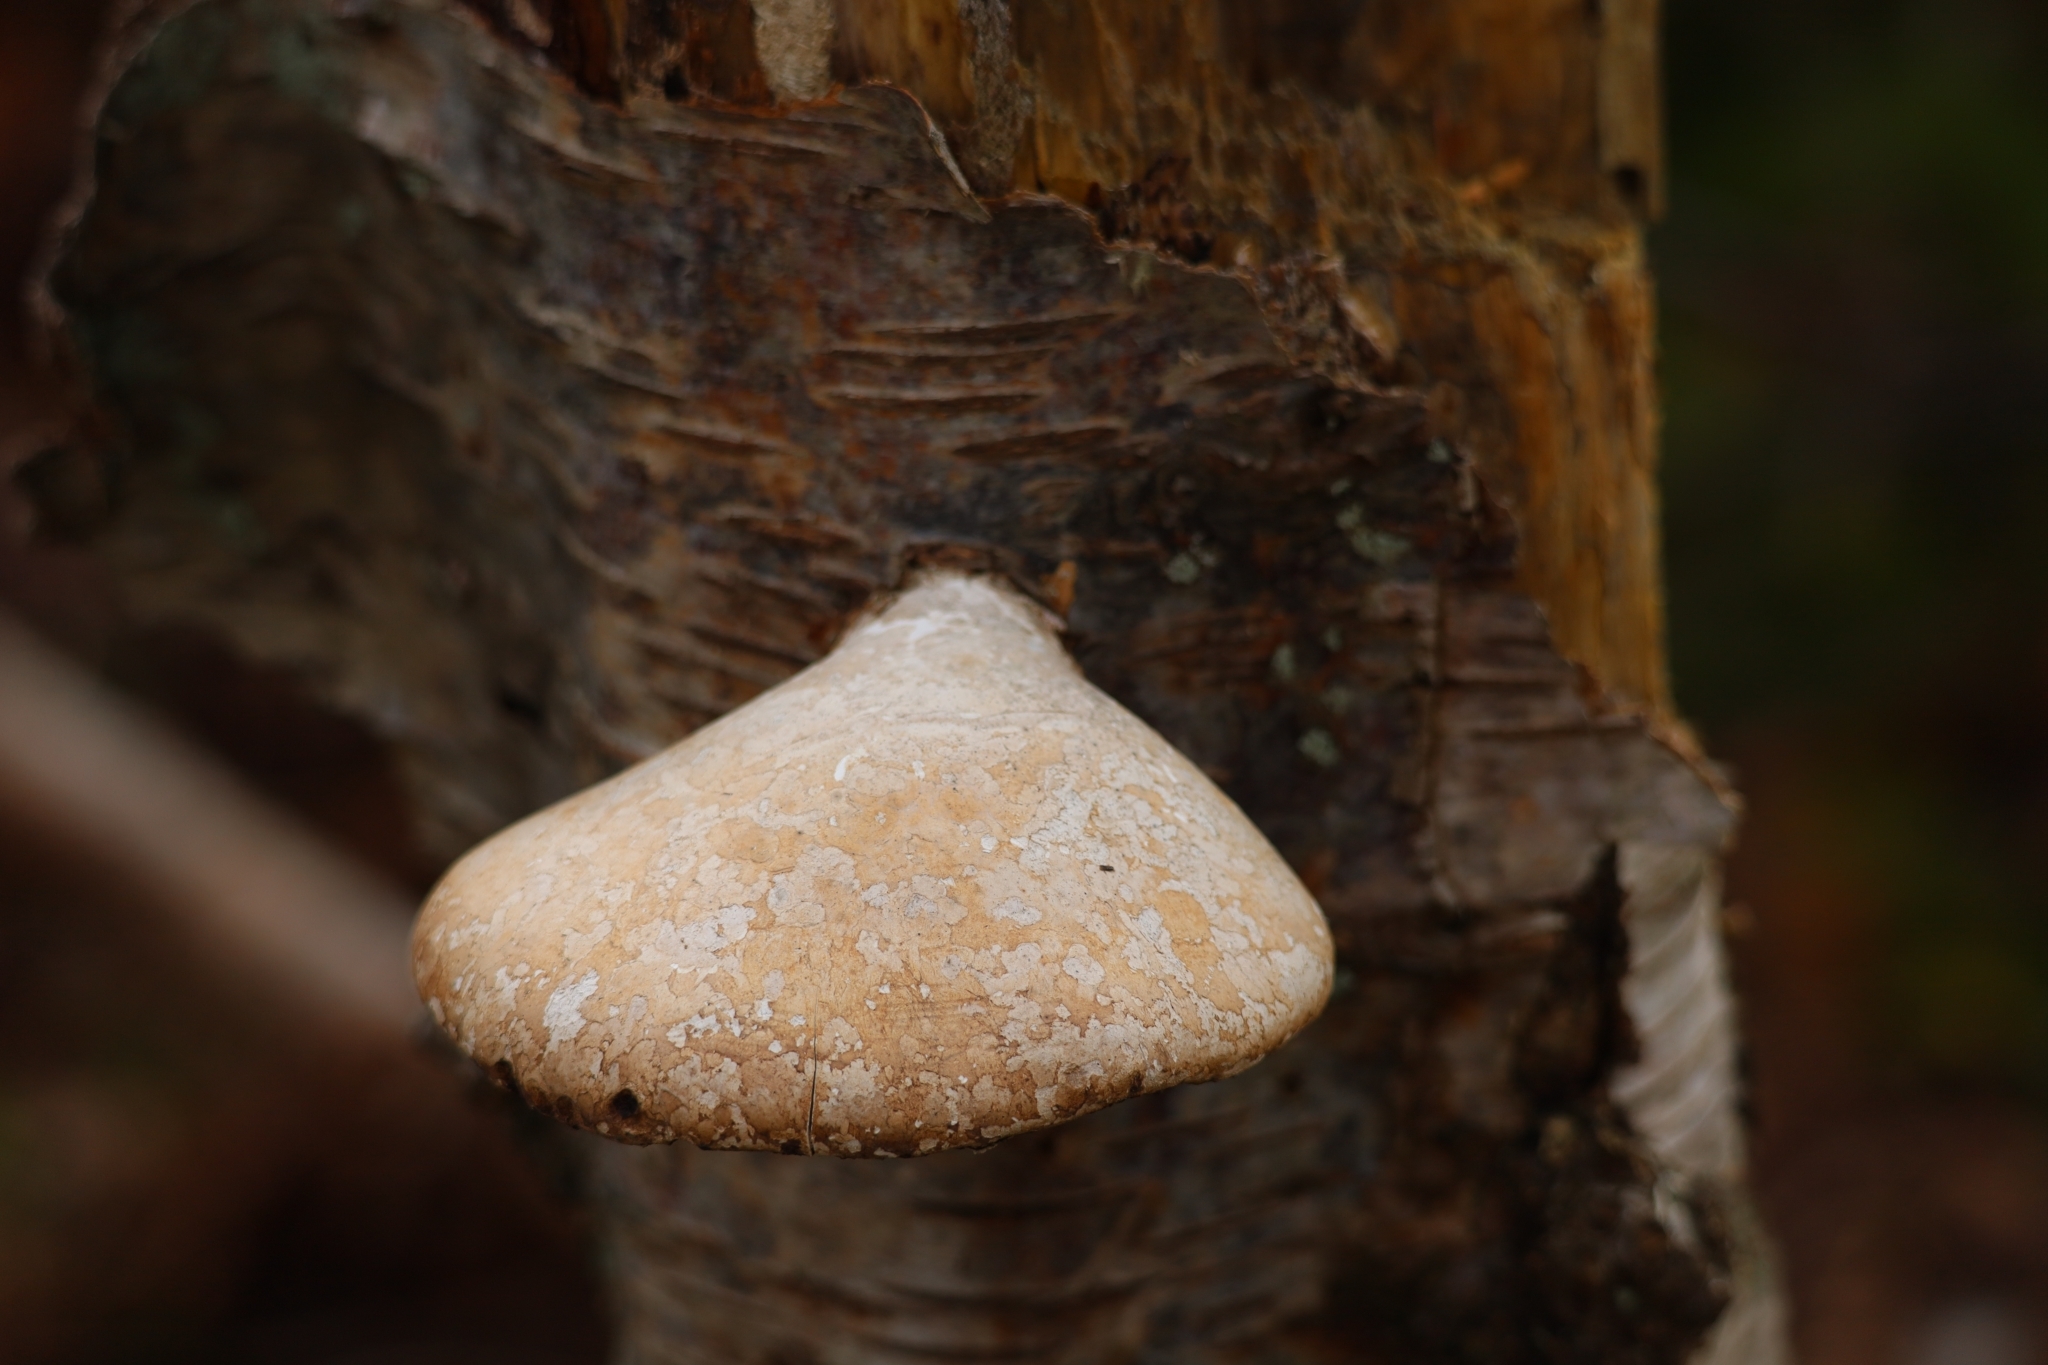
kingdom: Fungi
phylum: Basidiomycota
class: Agaricomycetes
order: Polyporales
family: Fomitopsidaceae
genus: Fomitopsis
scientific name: Fomitopsis betulina
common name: Birch polypore
